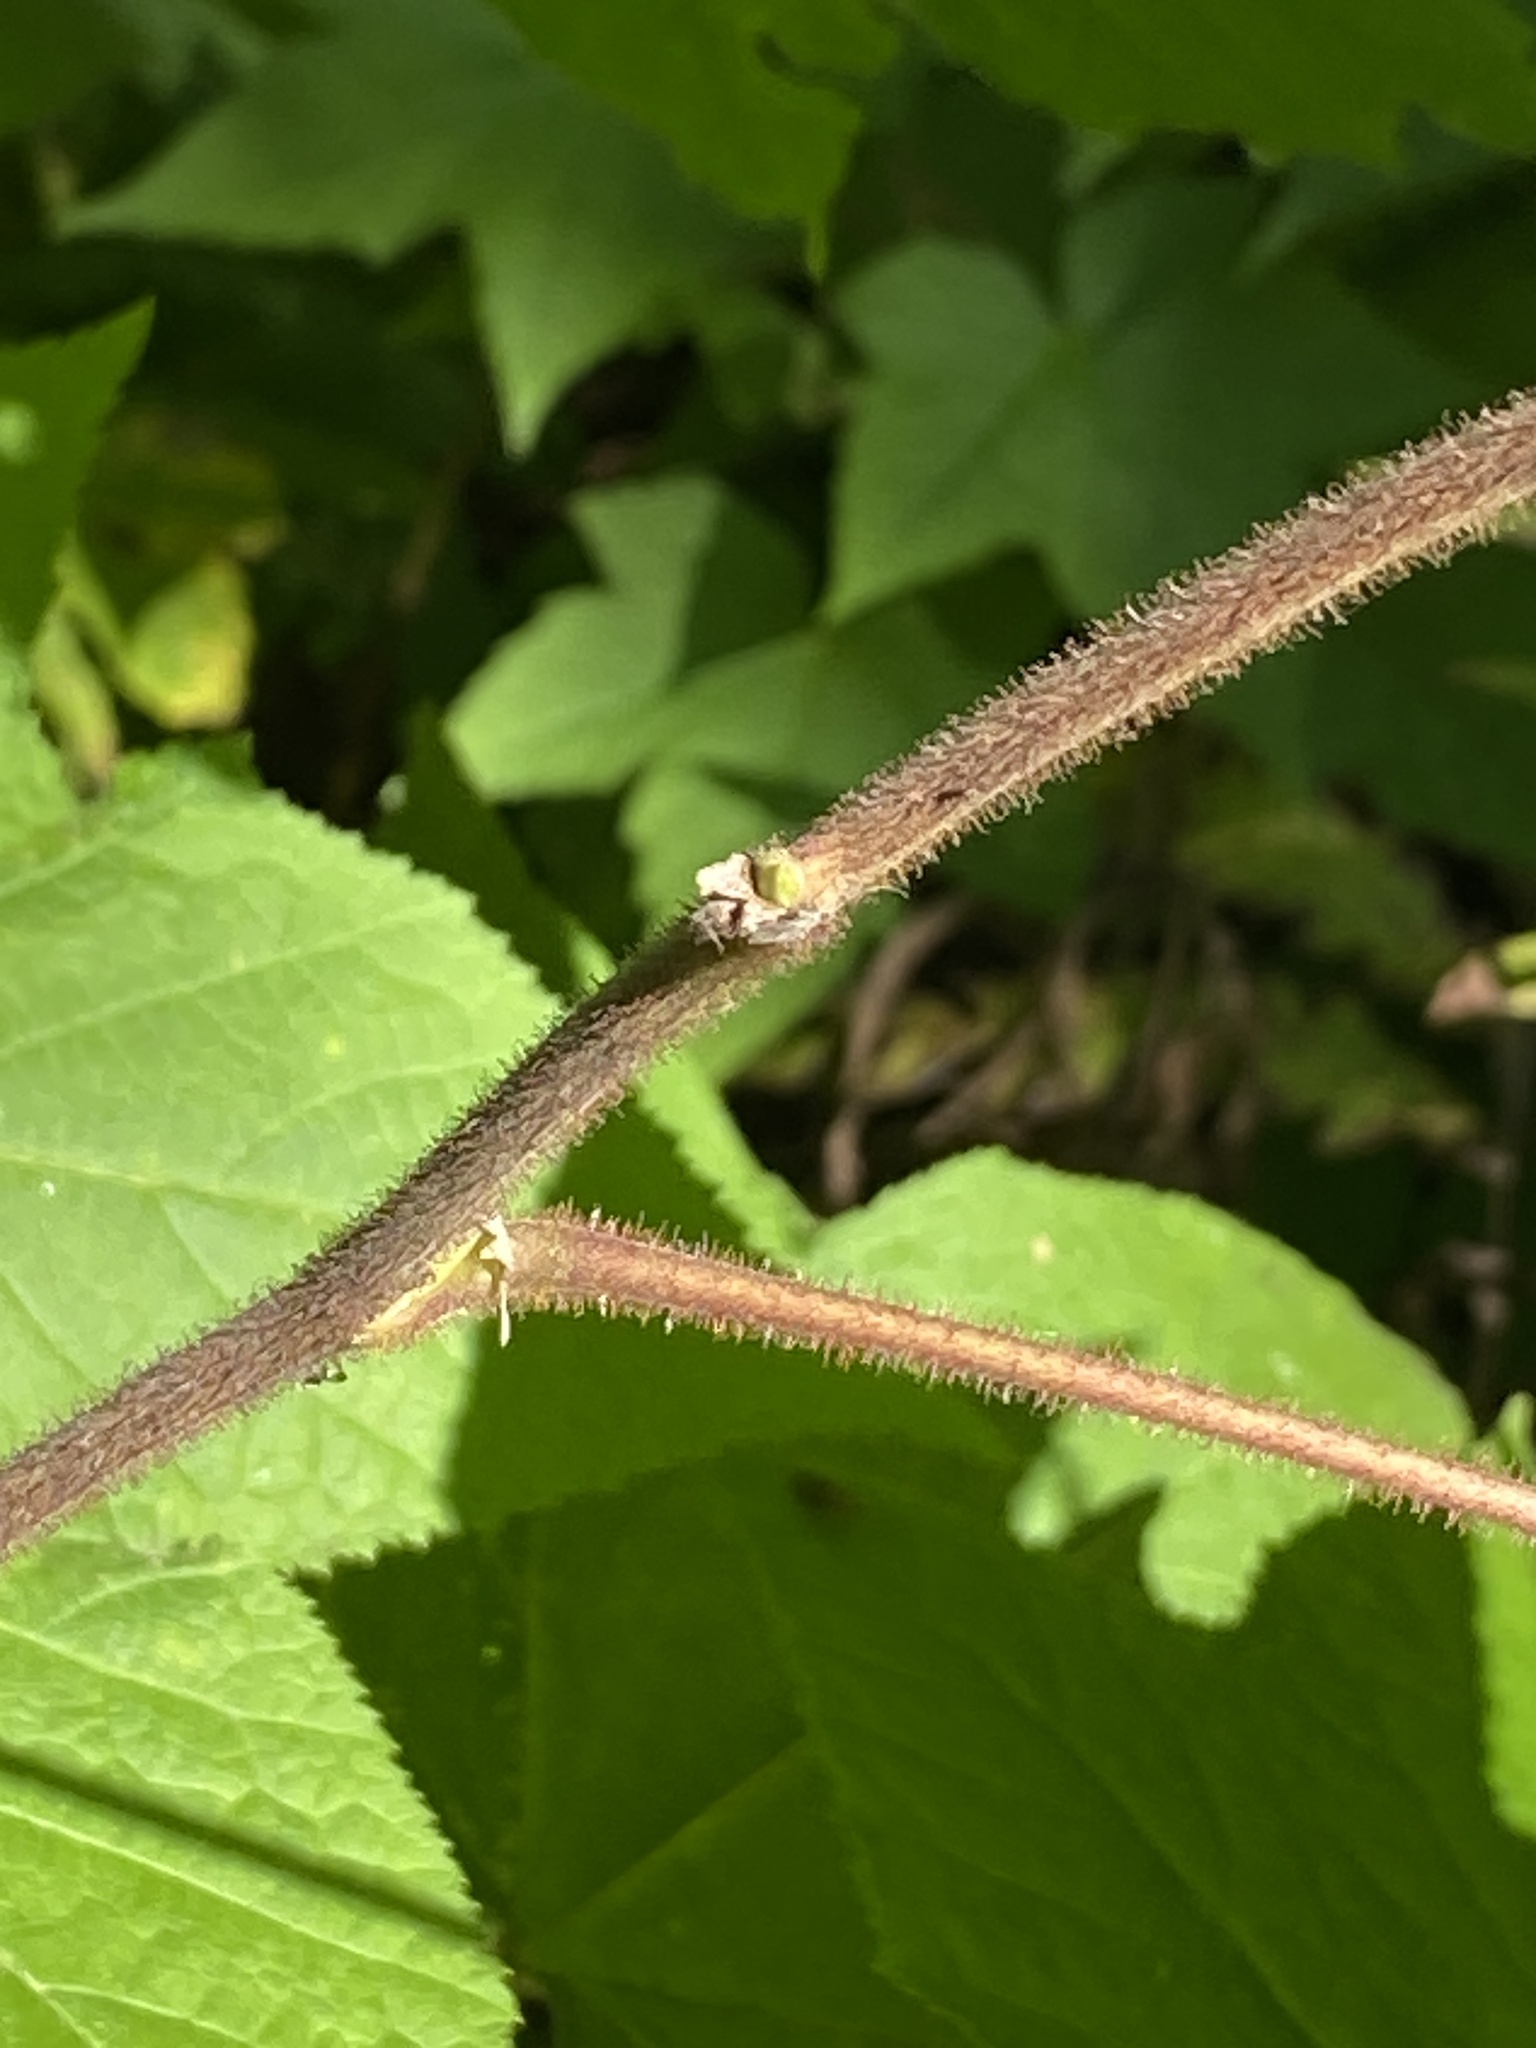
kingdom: Plantae
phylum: Tracheophyta
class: Magnoliopsida
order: Rosales
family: Rosaceae
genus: Rubus
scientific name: Rubus odoratus
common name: Purple-flowered raspberry
